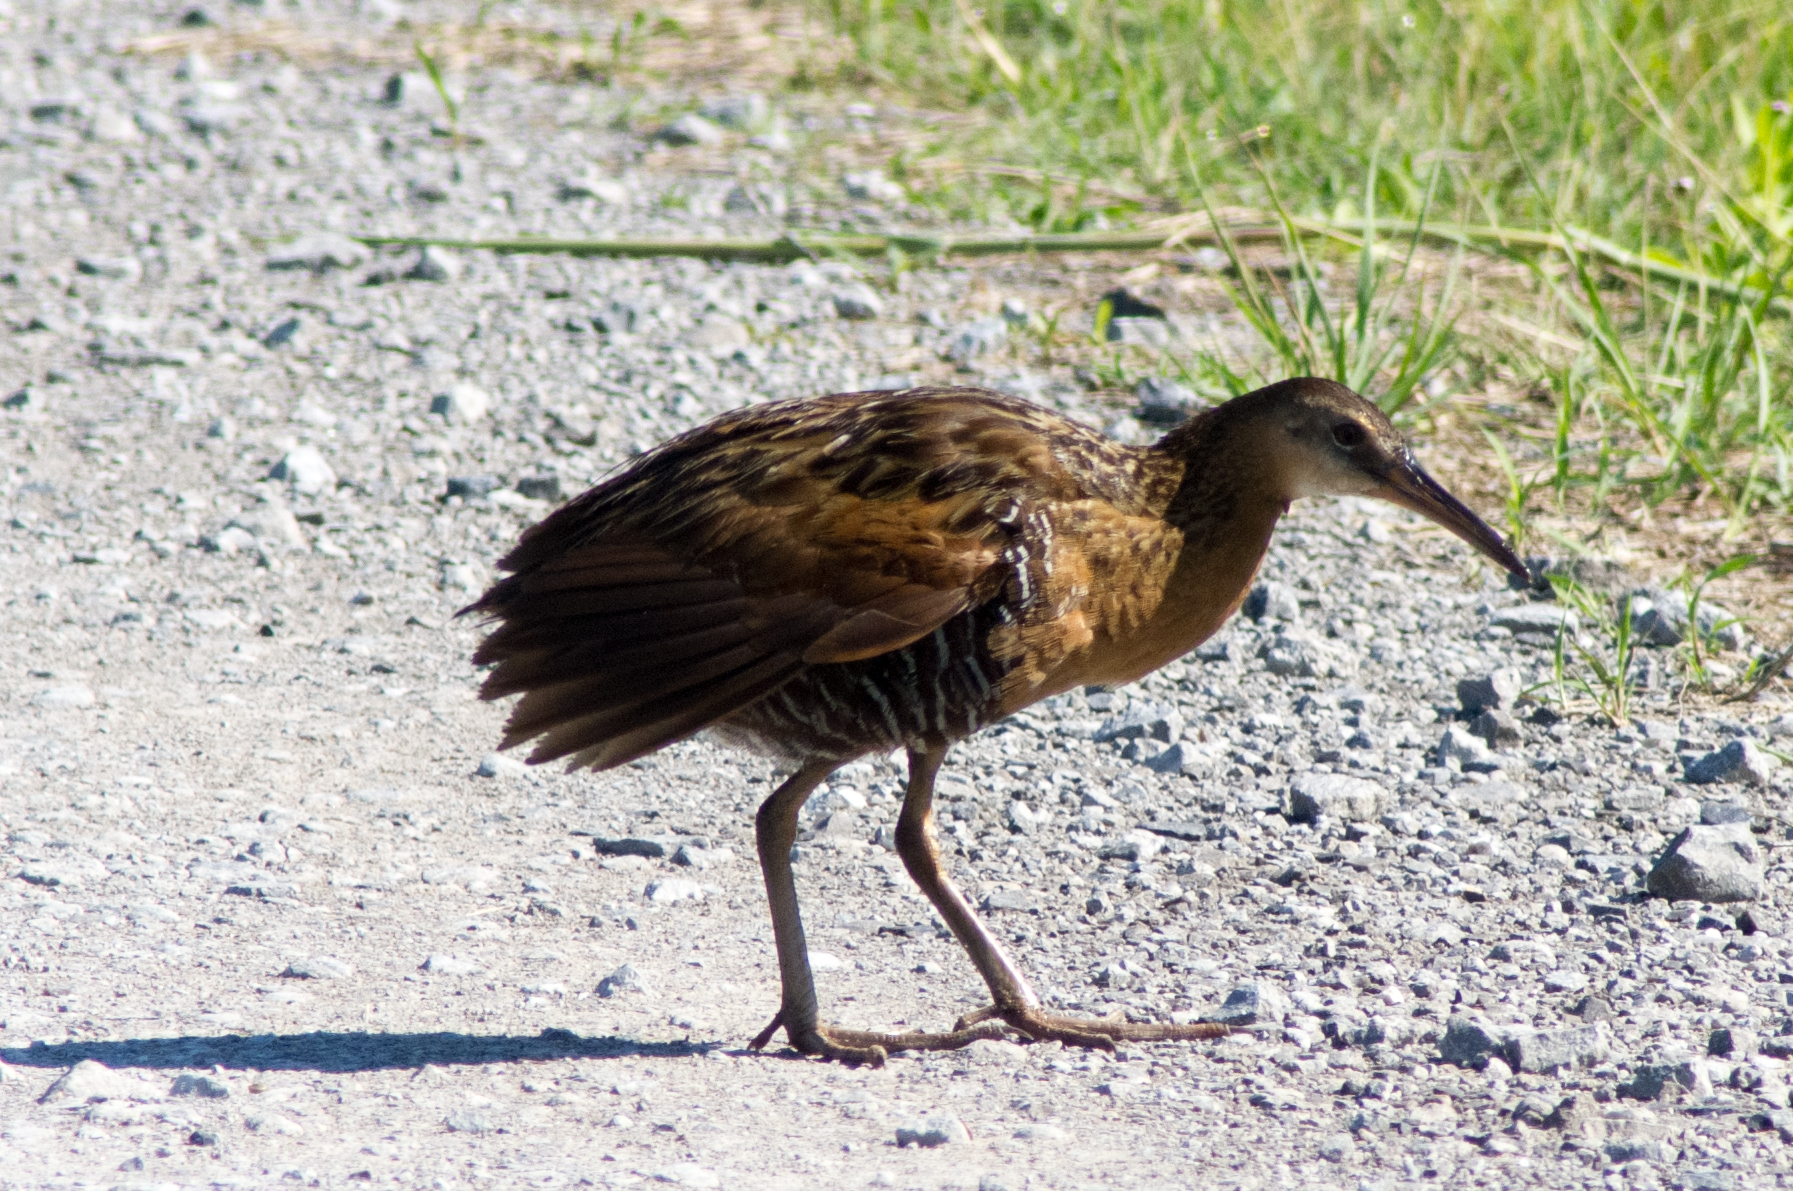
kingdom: Animalia
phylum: Chordata
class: Aves
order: Gruiformes
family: Rallidae
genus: Rallus
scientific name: Rallus elegans
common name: King rail
